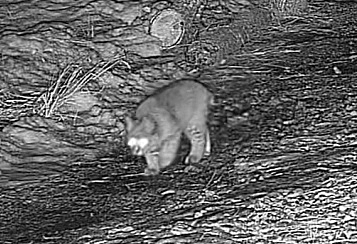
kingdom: Animalia
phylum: Chordata
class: Mammalia
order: Carnivora
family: Felidae
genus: Lynx
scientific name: Lynx rufus
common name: Bobcat
